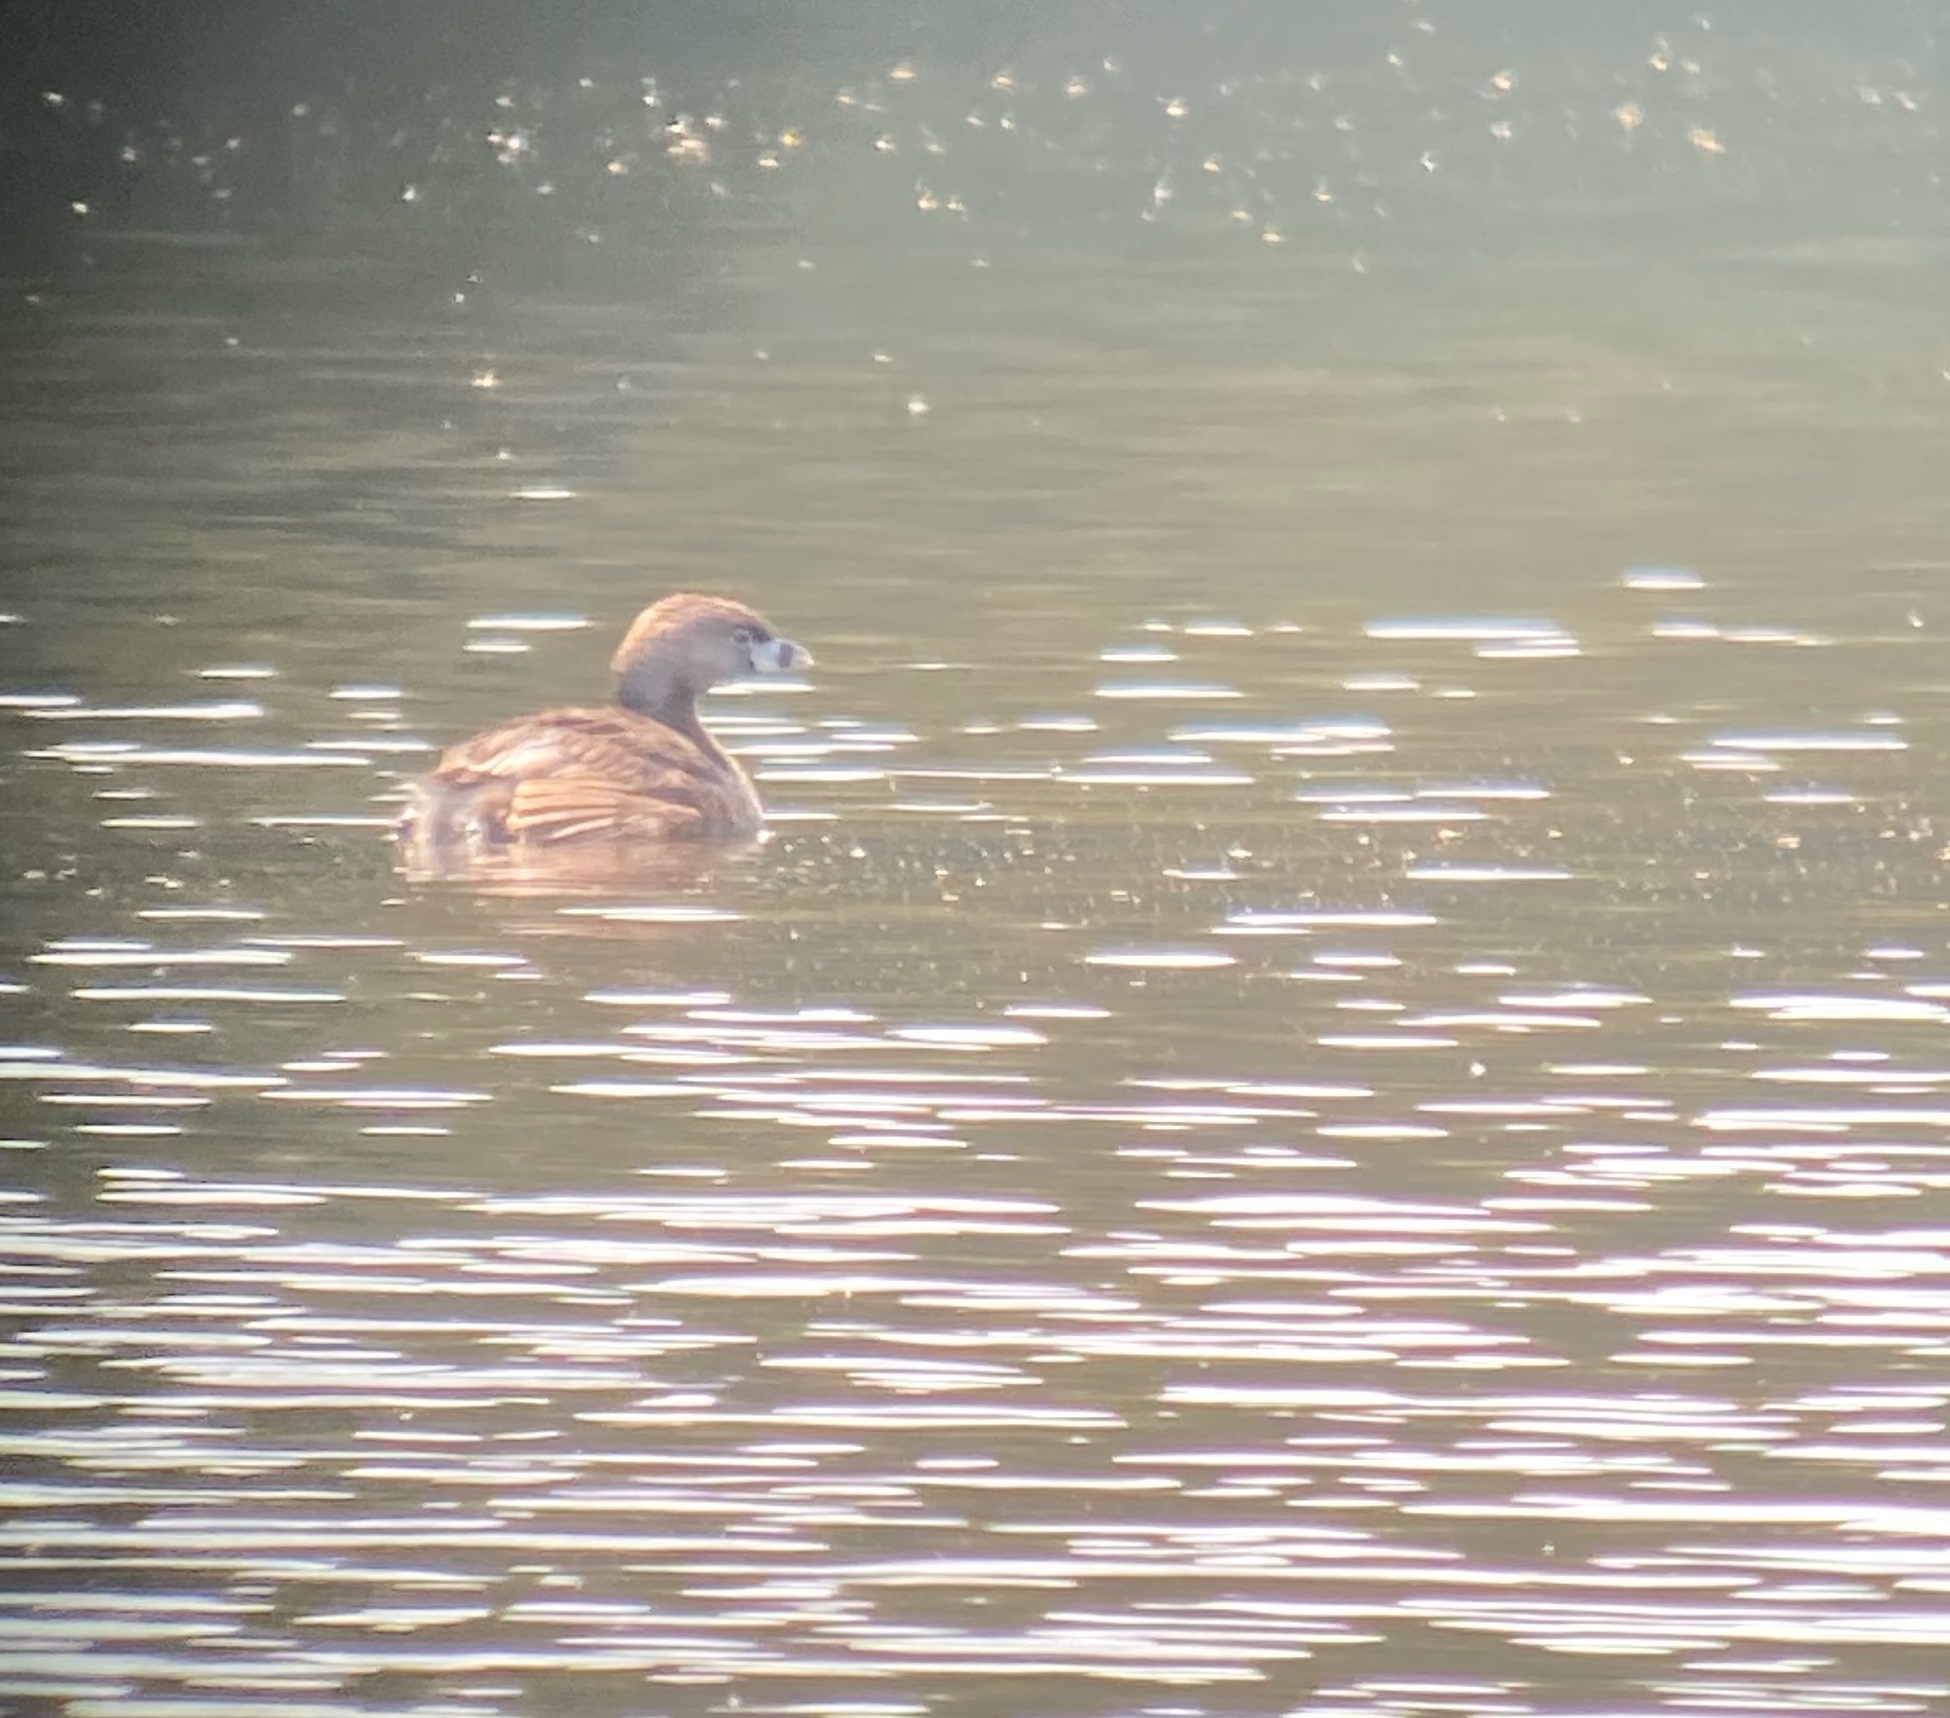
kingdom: Animalia
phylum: Chordata
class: Aves
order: Podicipediformes
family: Podicipedidae
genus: Podilymbus
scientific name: Podilymbus podiceps
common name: Pied-billed grebe
